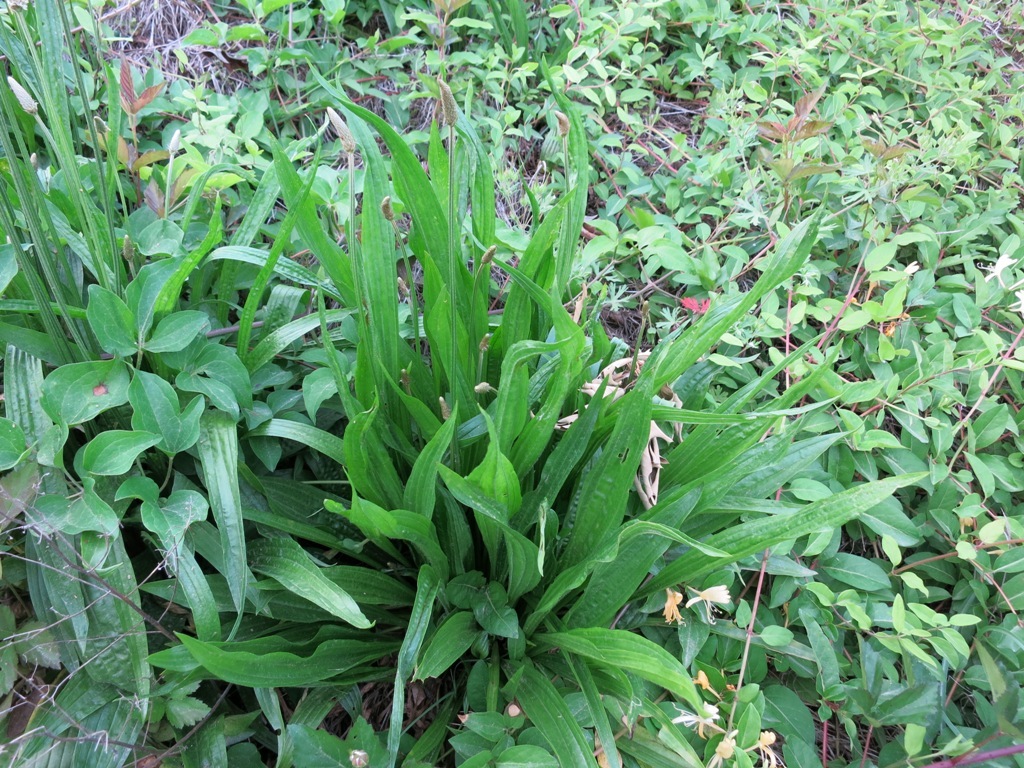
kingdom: Plantae
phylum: Tracheophyta
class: Magnoliopsida
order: Lamiales
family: Plantaginaceae
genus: Plantago
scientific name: Plantago lanceolata
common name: Ribwort plantain
